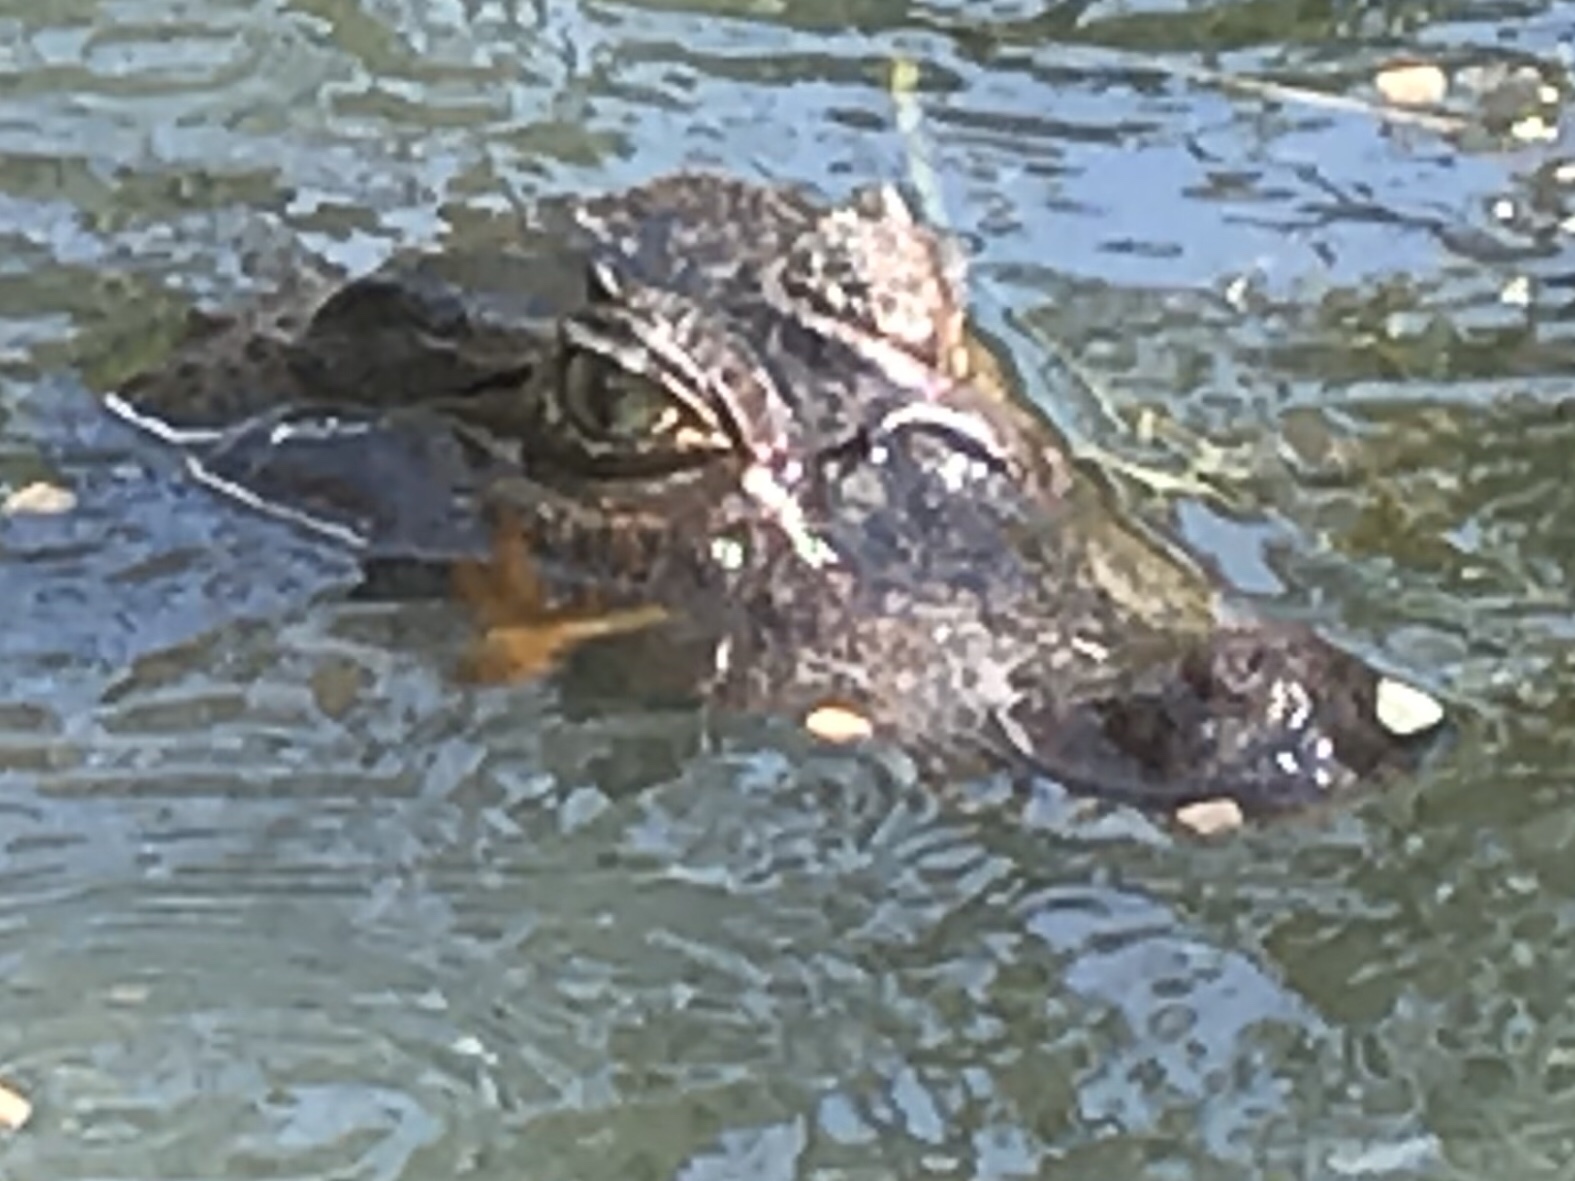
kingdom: Animalia
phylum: Chordata
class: Crocodylia
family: Alligatoridae
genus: Caiman
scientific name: Caiman crocodilus
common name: Common caiman
